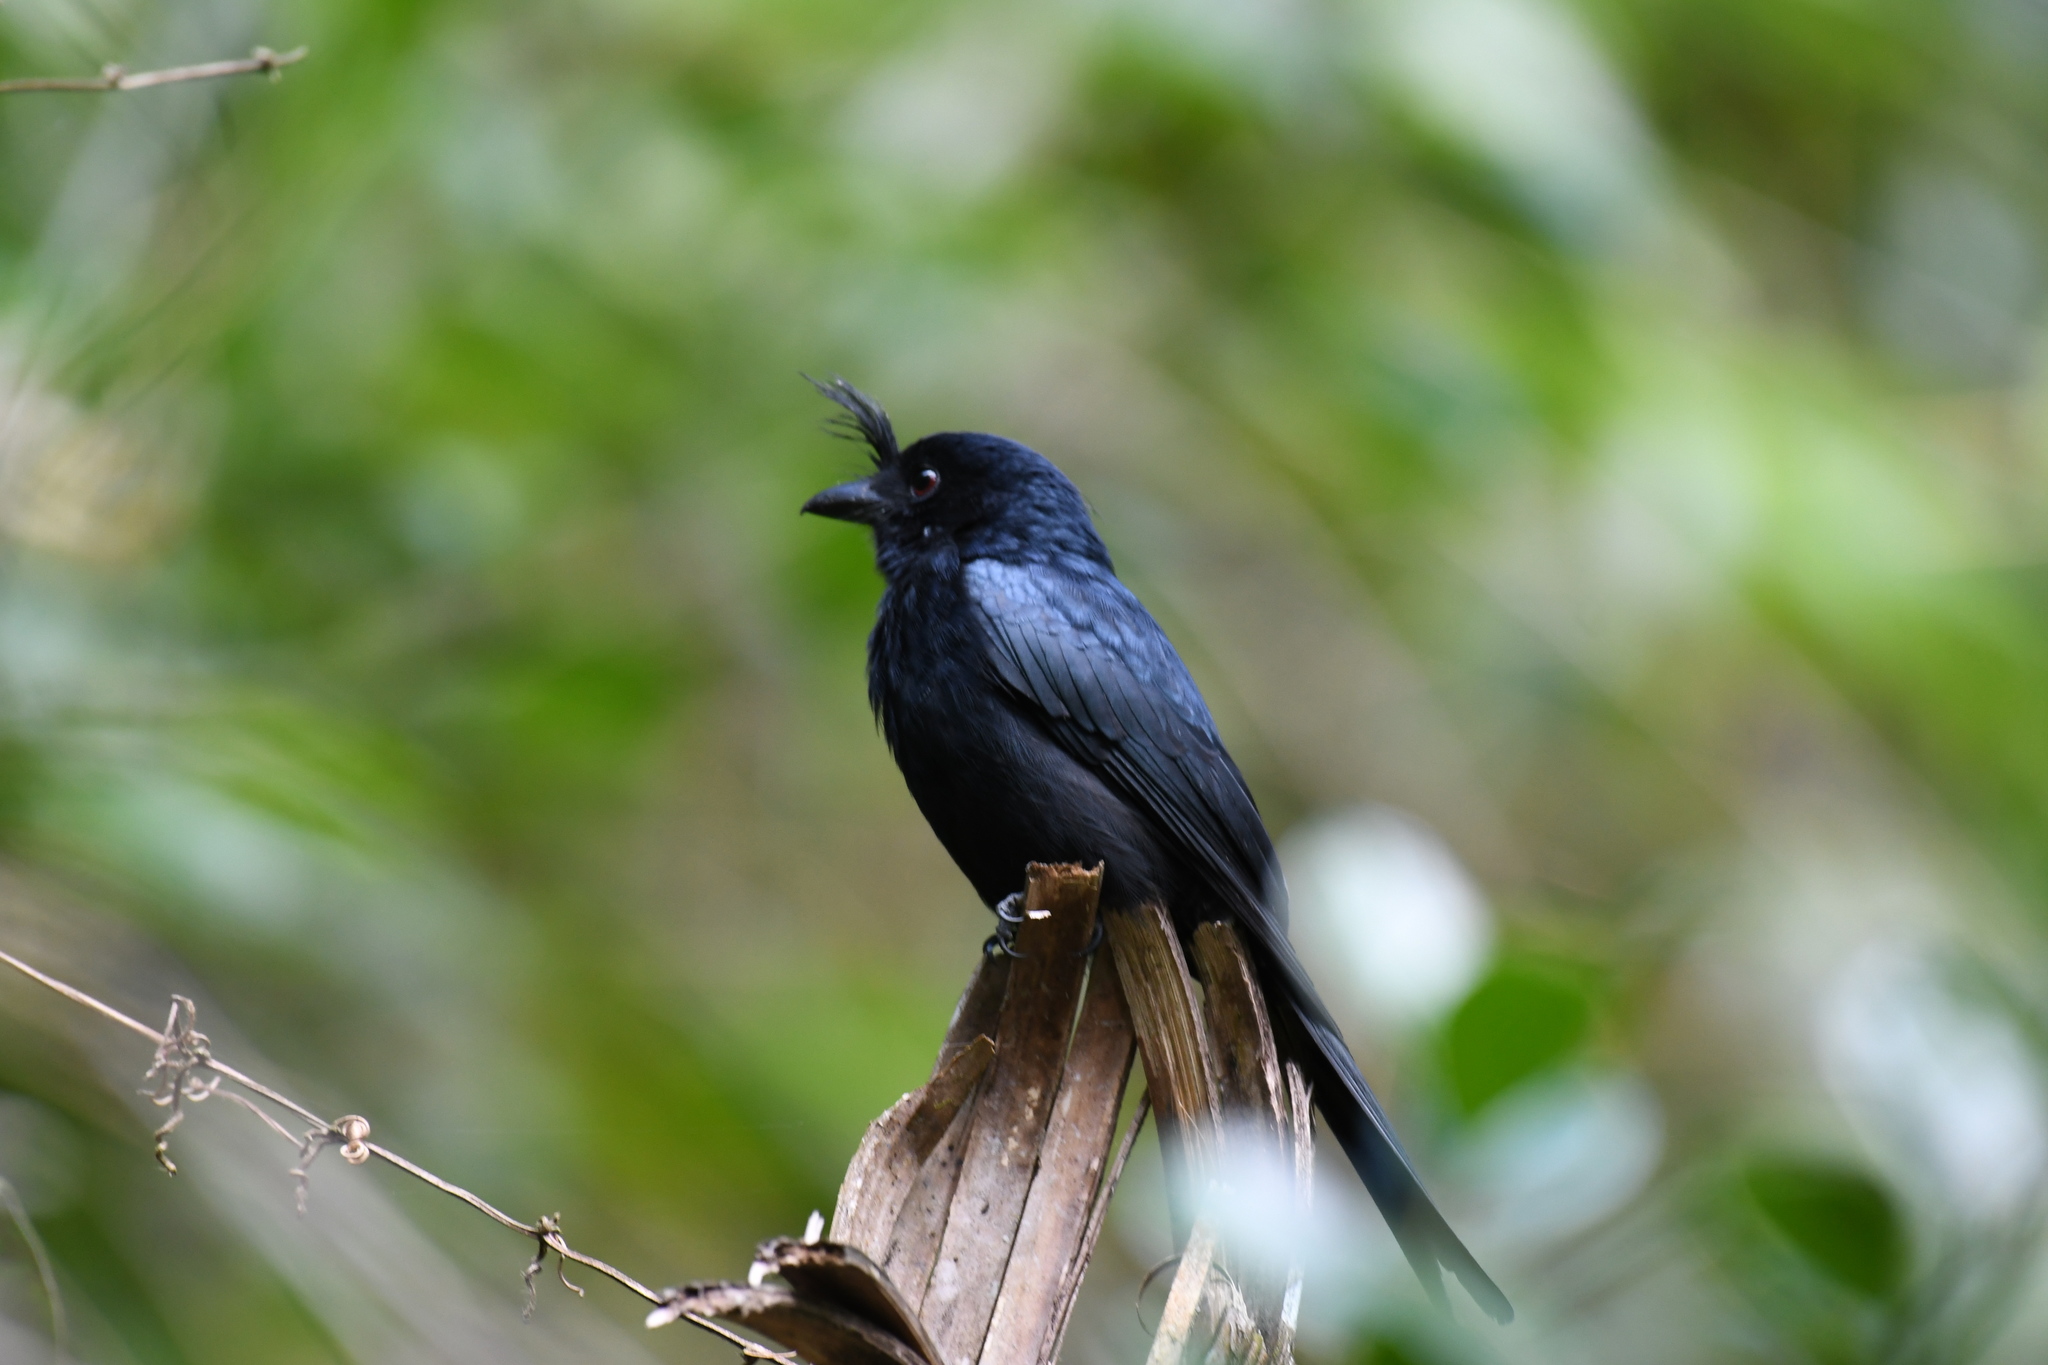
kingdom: Animalia
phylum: Chordata
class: Aves
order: Passeriformes
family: Dicruridae
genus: Dicrurus
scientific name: Dicrurus forficatus
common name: Crested drongo
